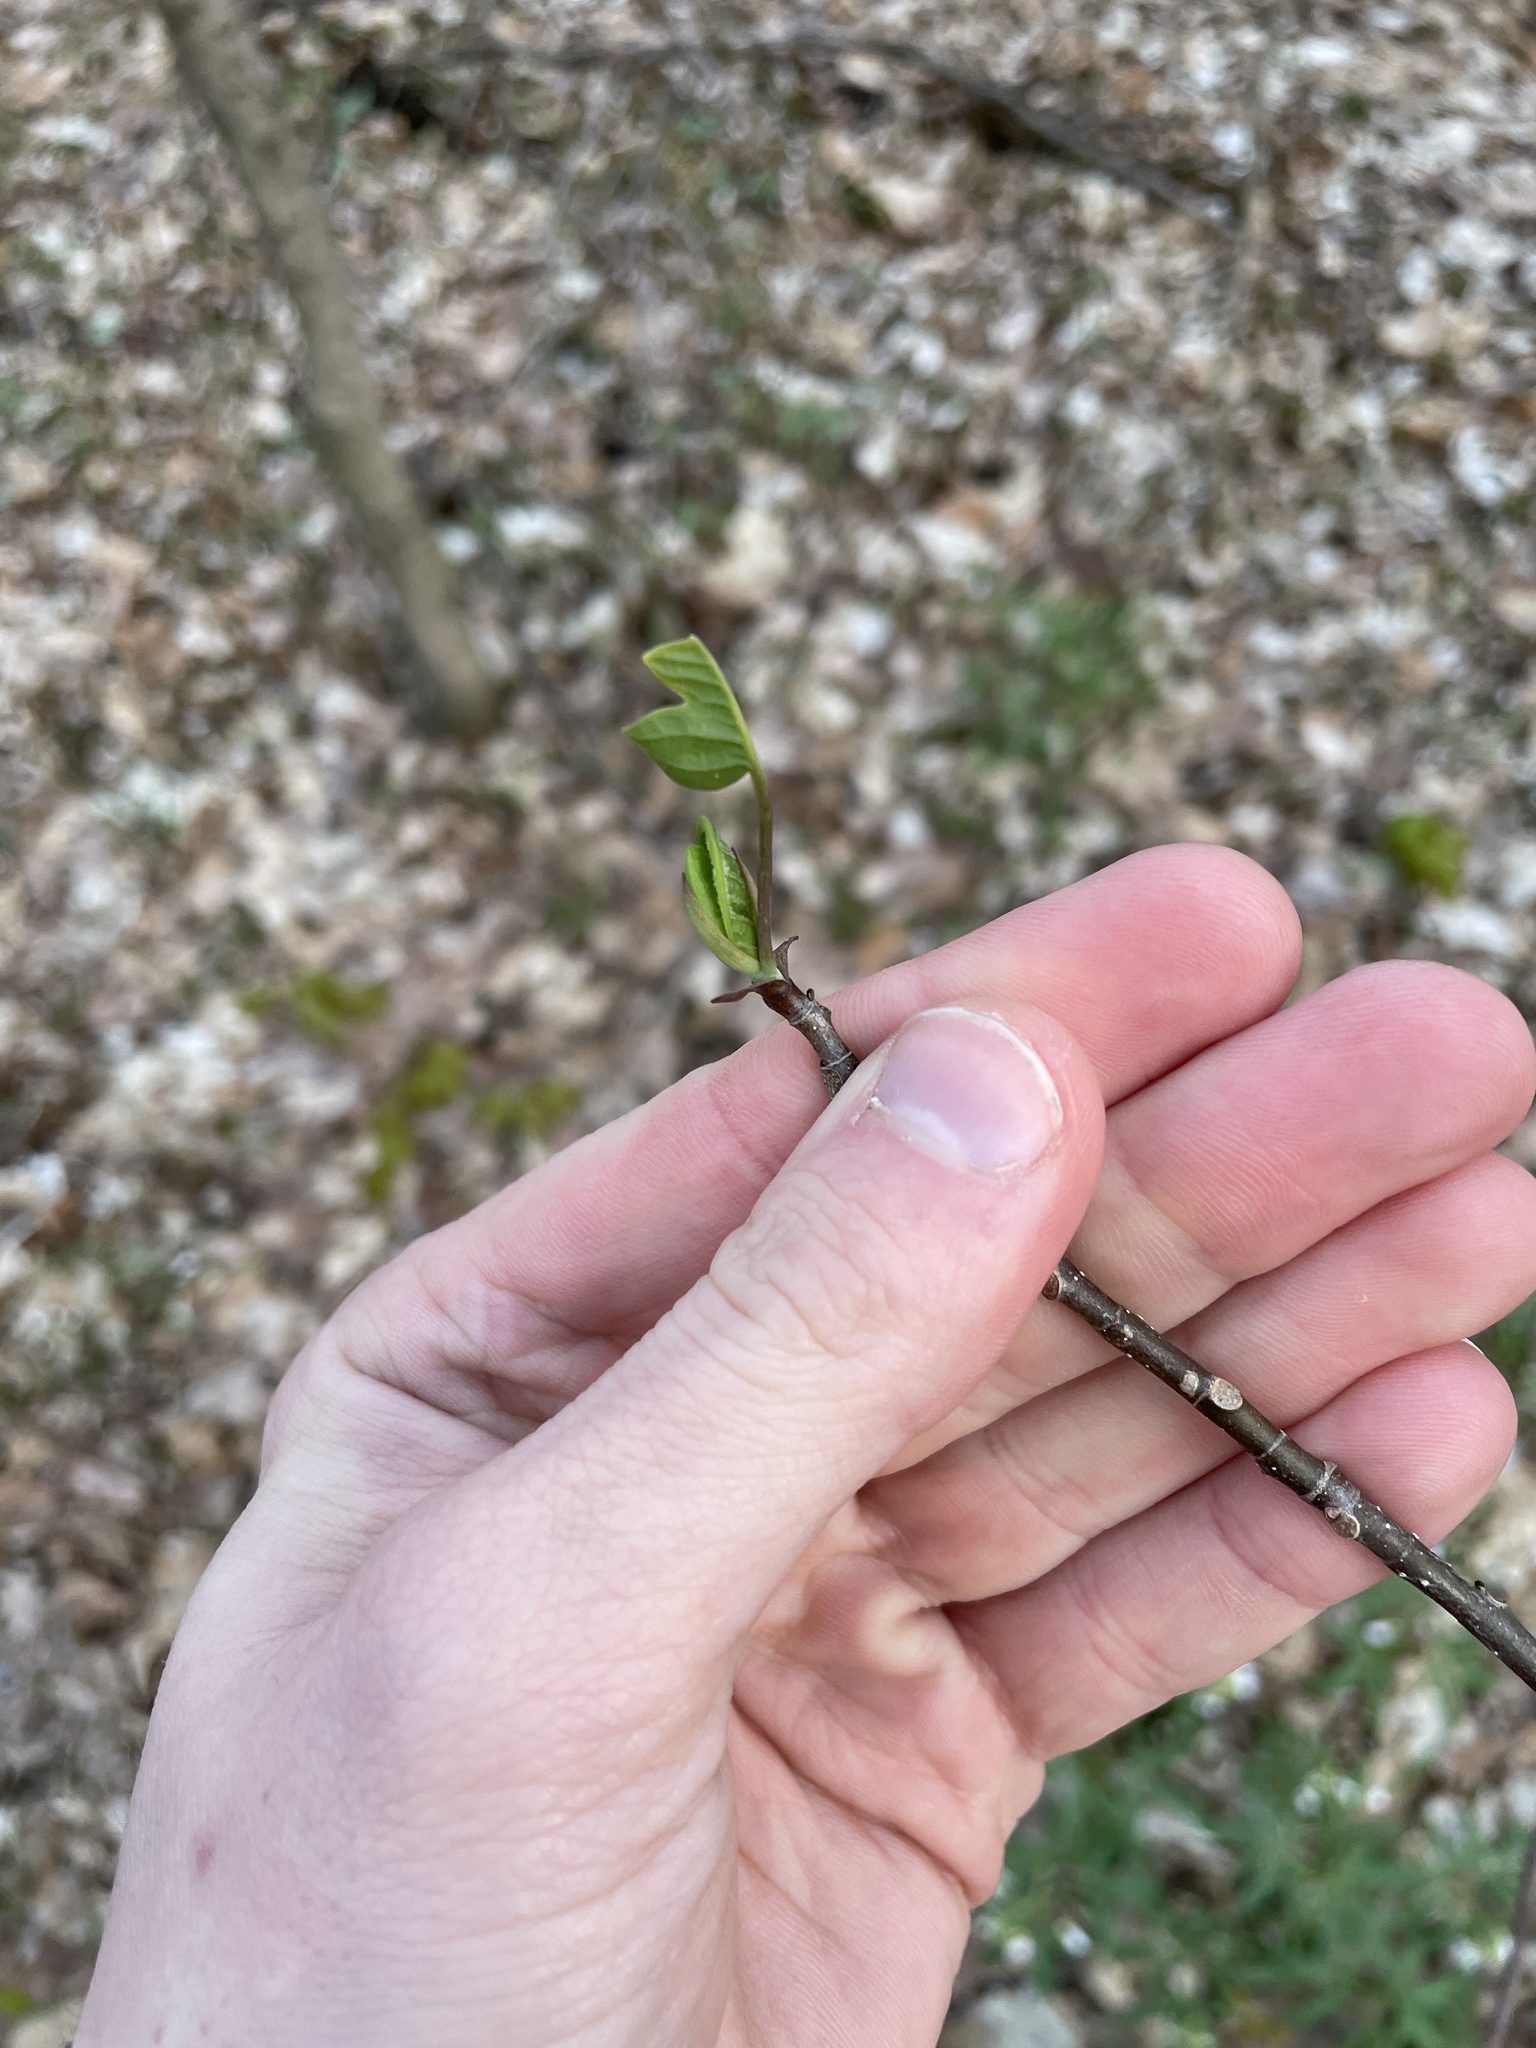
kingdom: Plantae
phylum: Tracheophyta
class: Magnoliopsida
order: Magnoliales
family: Magnoliaceae
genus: Liriodendron
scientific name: Liriodendron tulipifera
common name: Tulip tree
